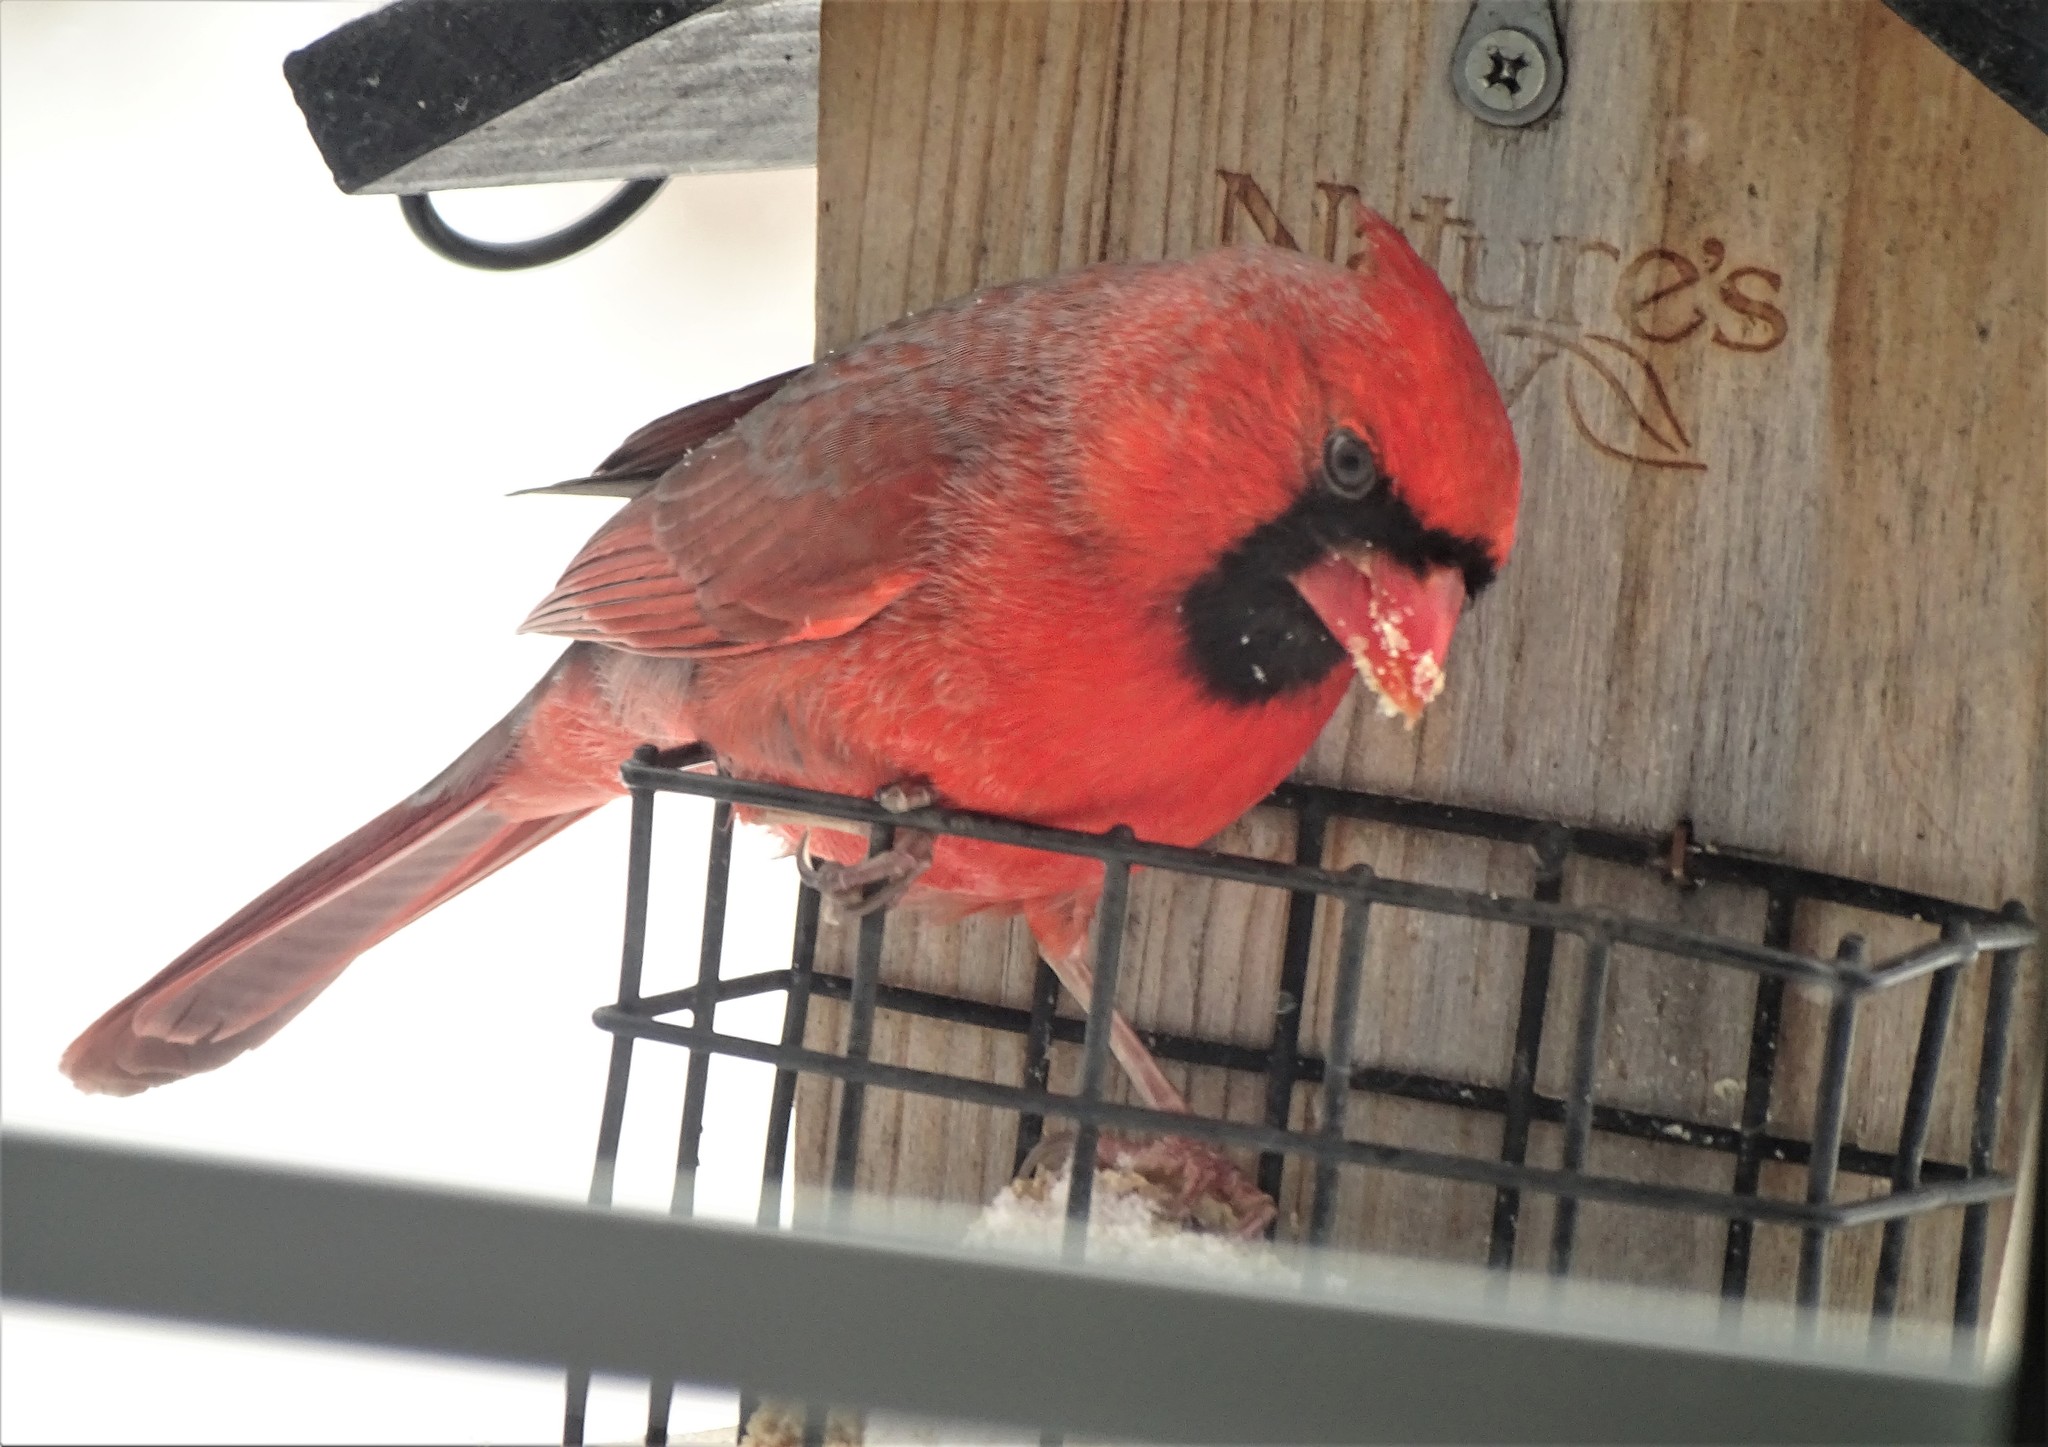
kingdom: Animalia
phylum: Chordata
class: Aves
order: Passeriformes
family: Cardinalidae
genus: Cardinalis
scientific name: Cardinalis cardinalis
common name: Northern cardinal
